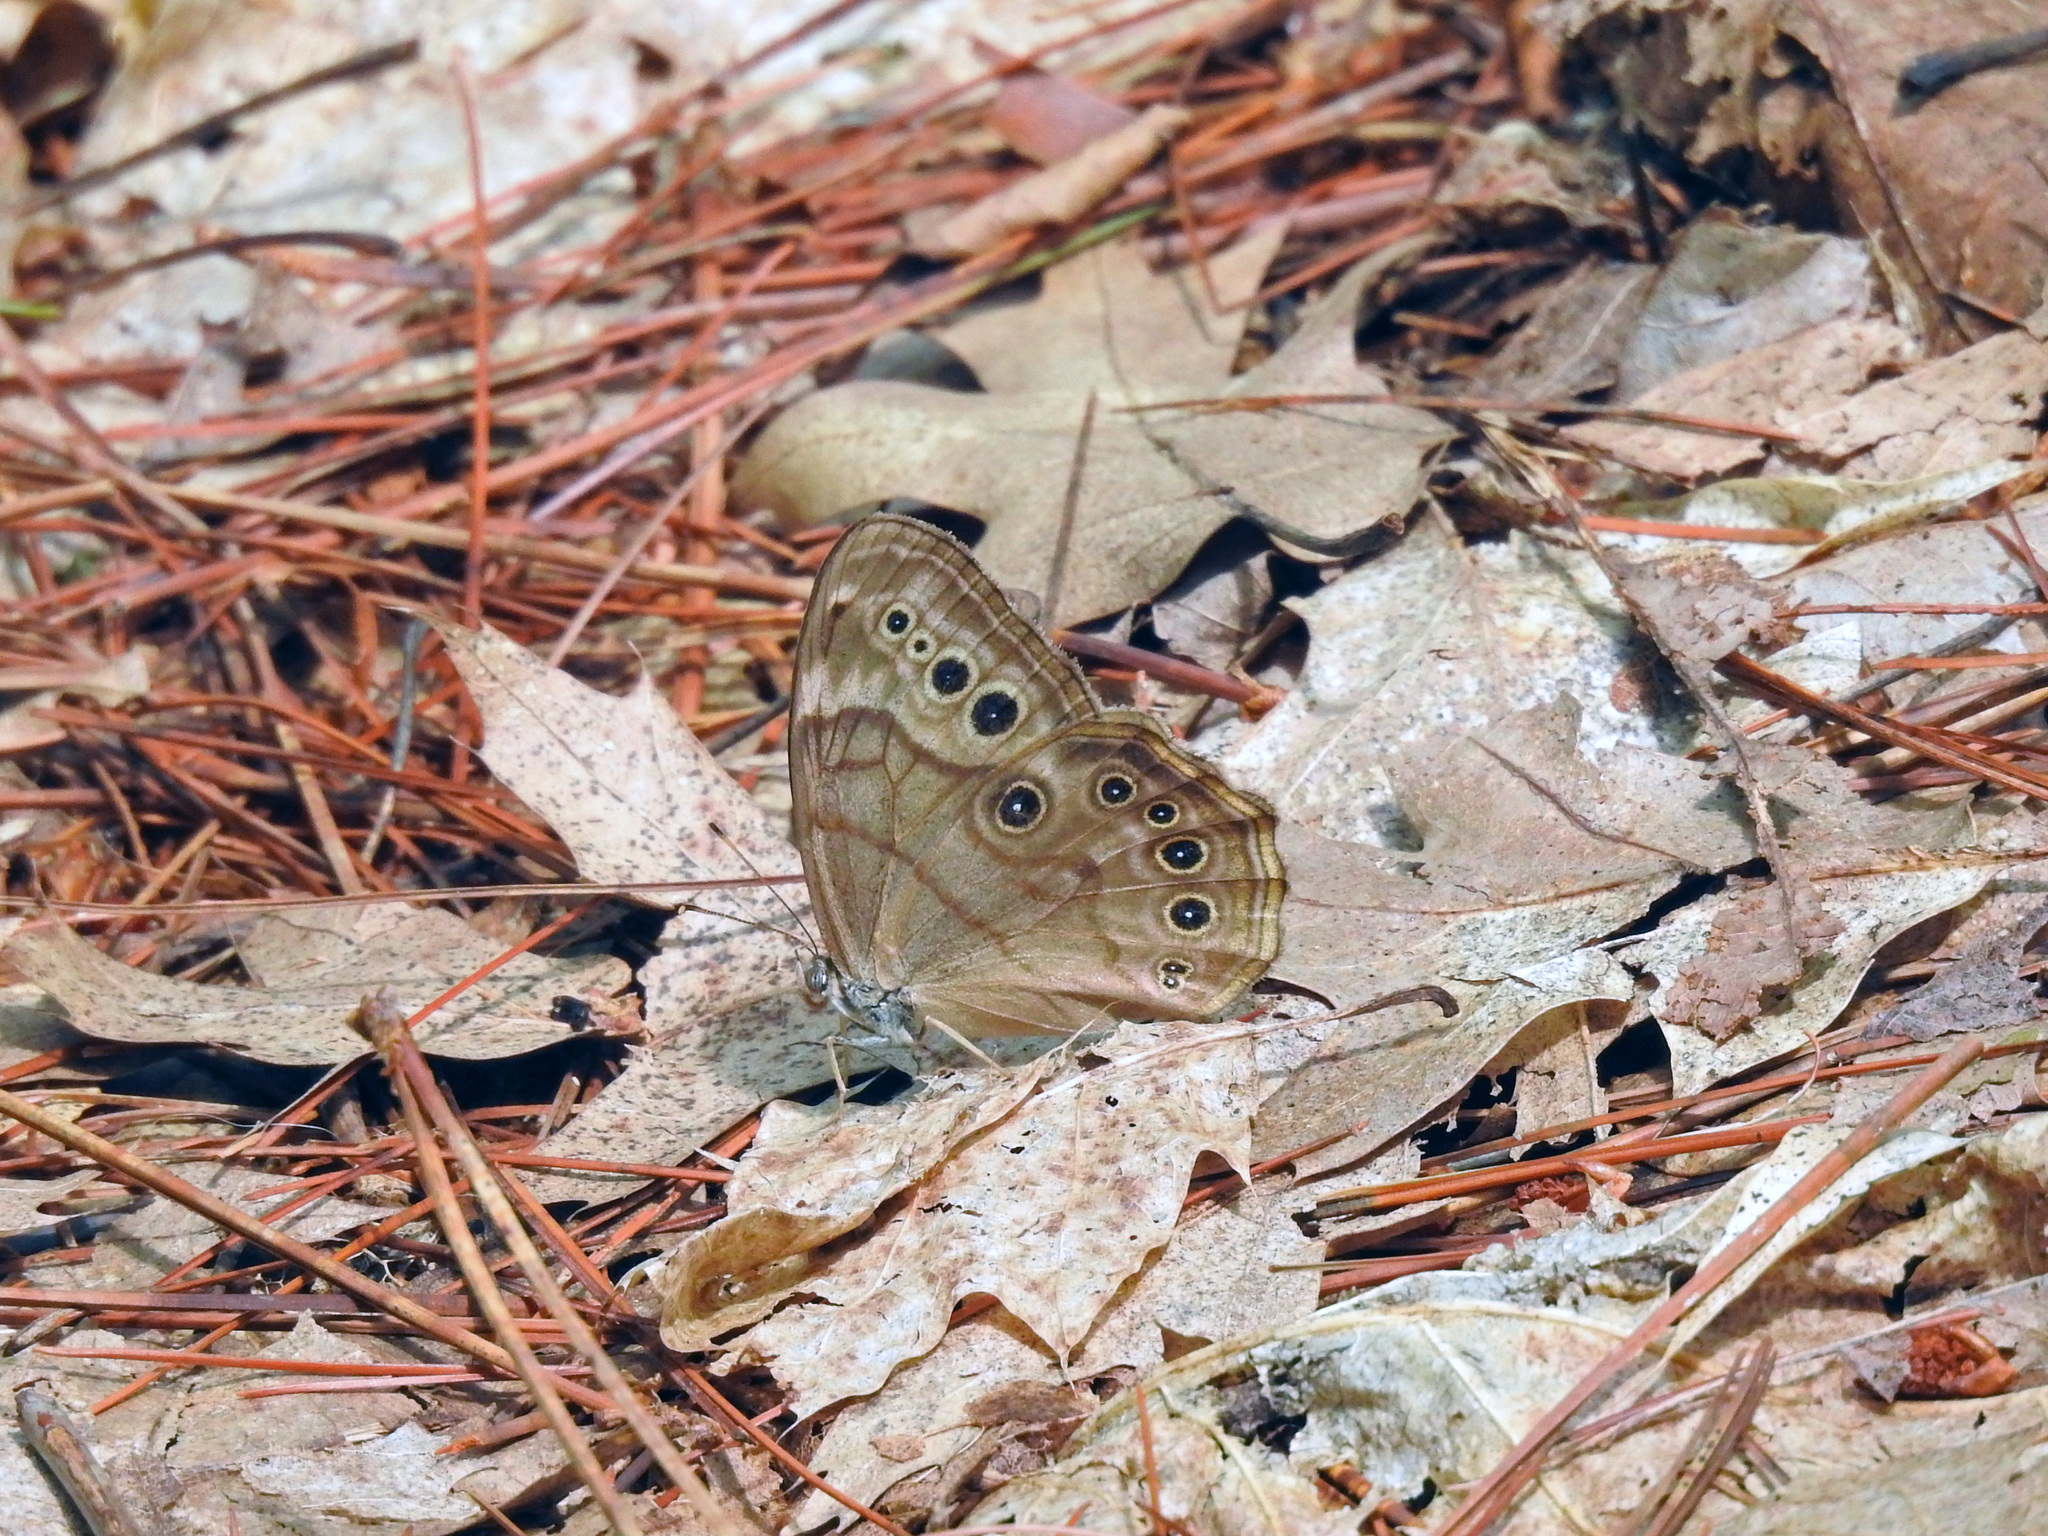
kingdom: Animalia
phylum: Arthropoda
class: Insecta
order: Lepidoptera
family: Nymphalidae
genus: Lethe
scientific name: Lethe anthedon
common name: Northern pearly-eye
